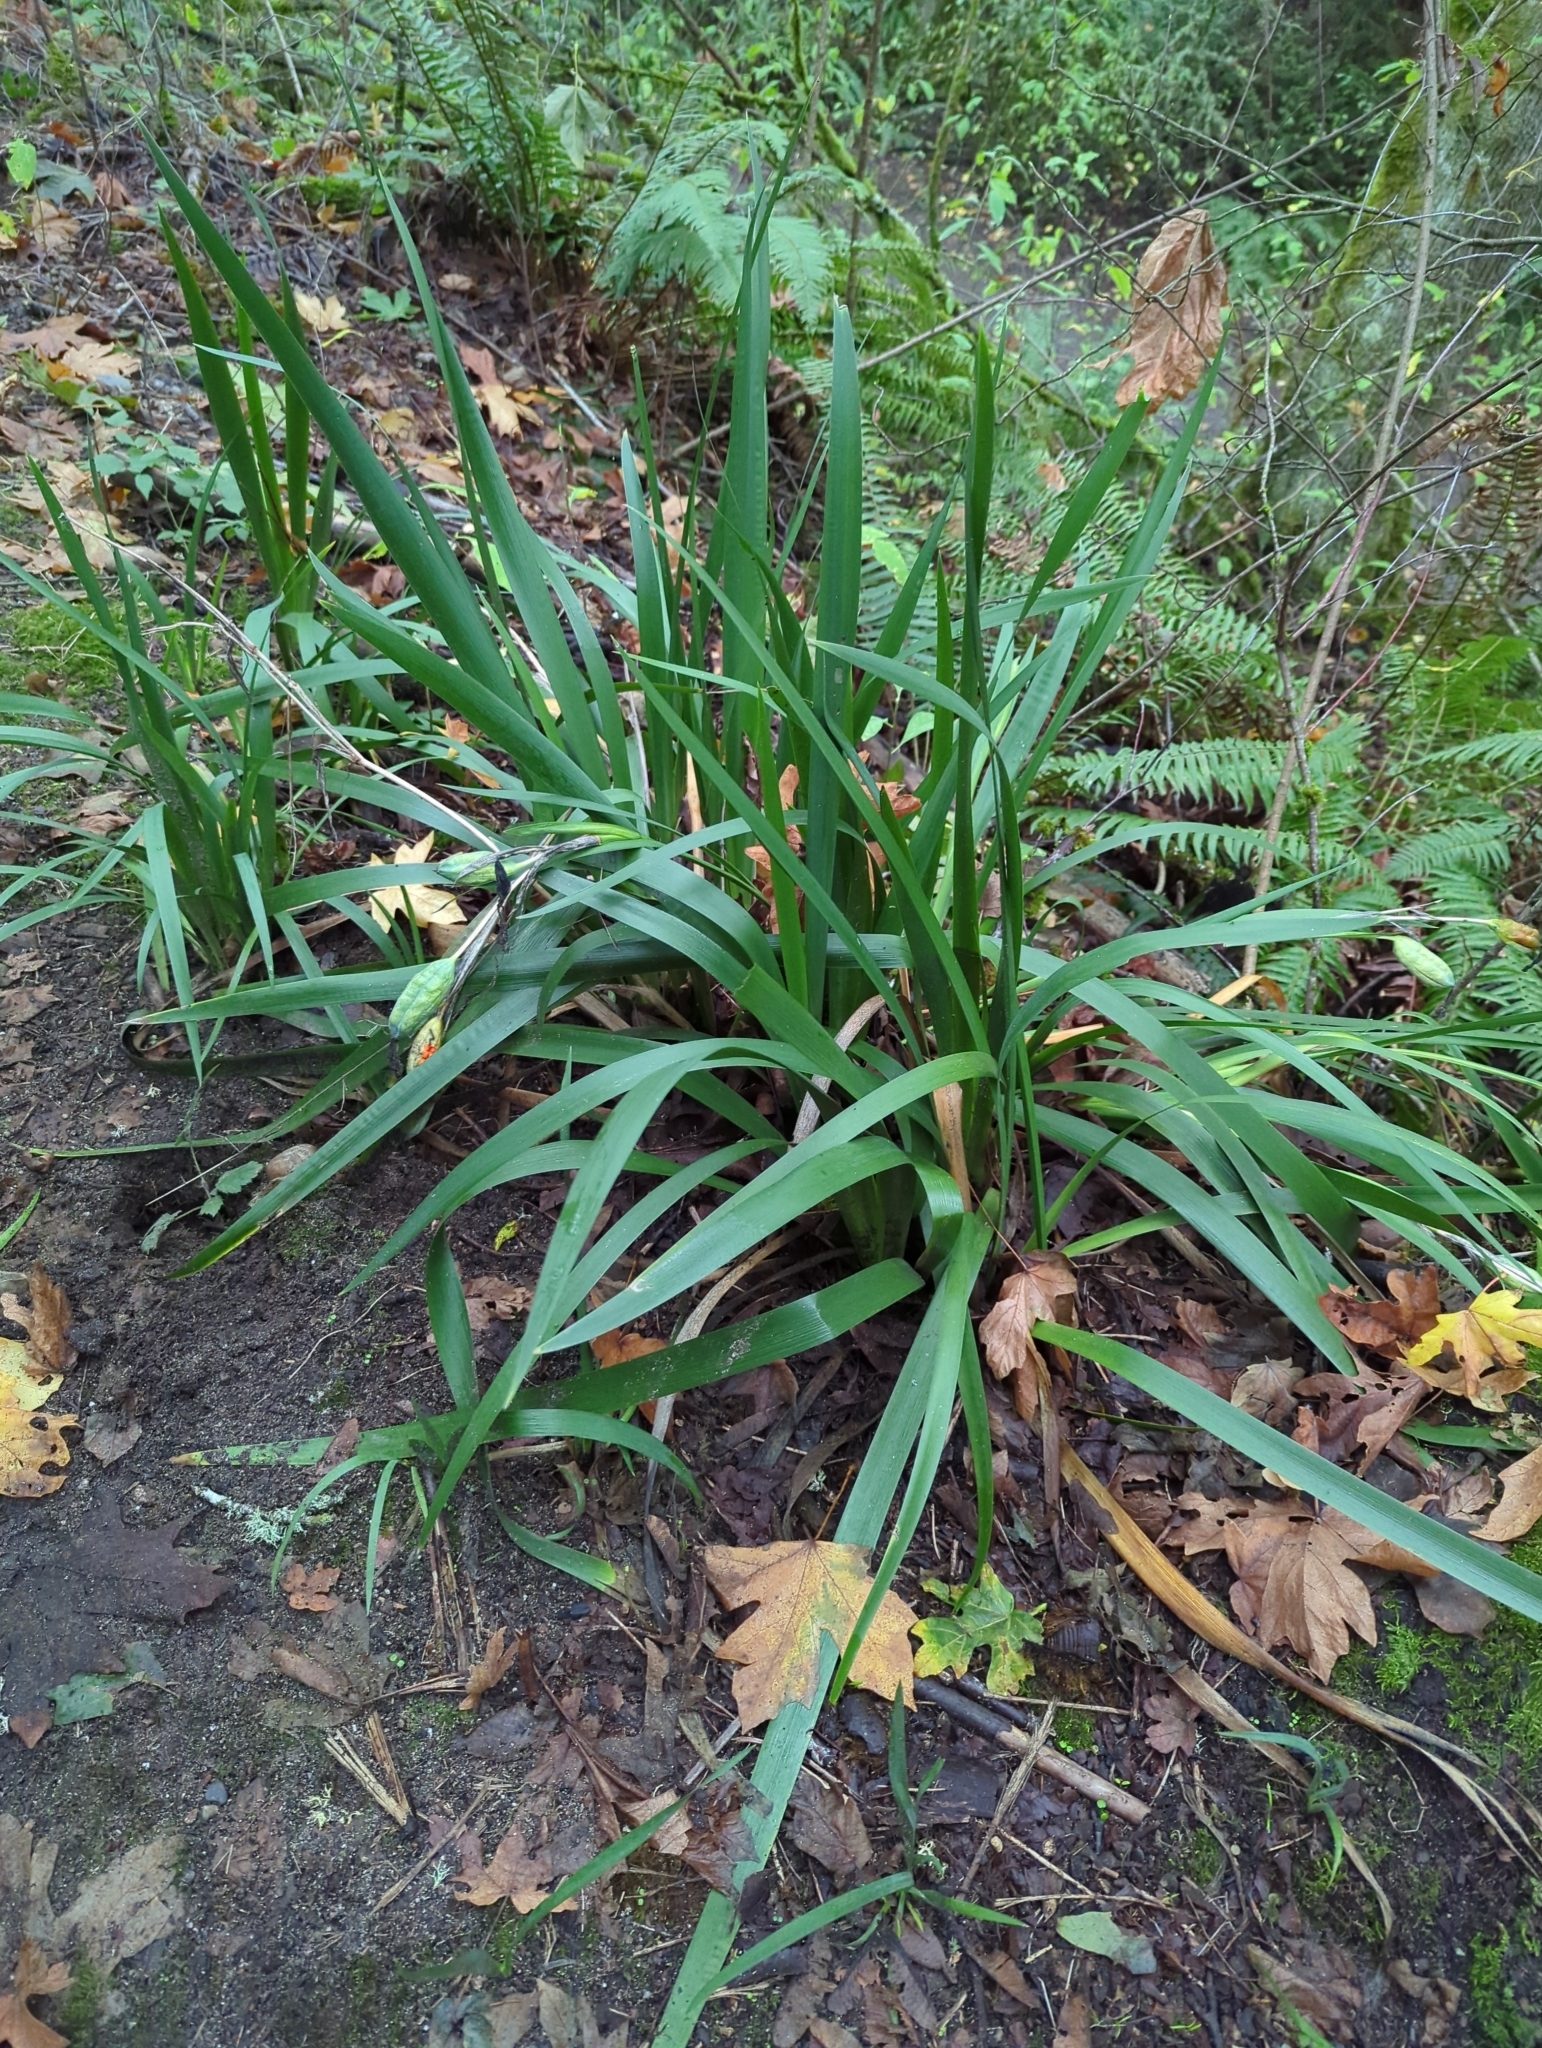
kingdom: Plantae
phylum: Tracheophyta
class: Liliopsida
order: Asparagales
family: Iridaceae
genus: Iris
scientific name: Iris foetidissima
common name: Stinking iris
